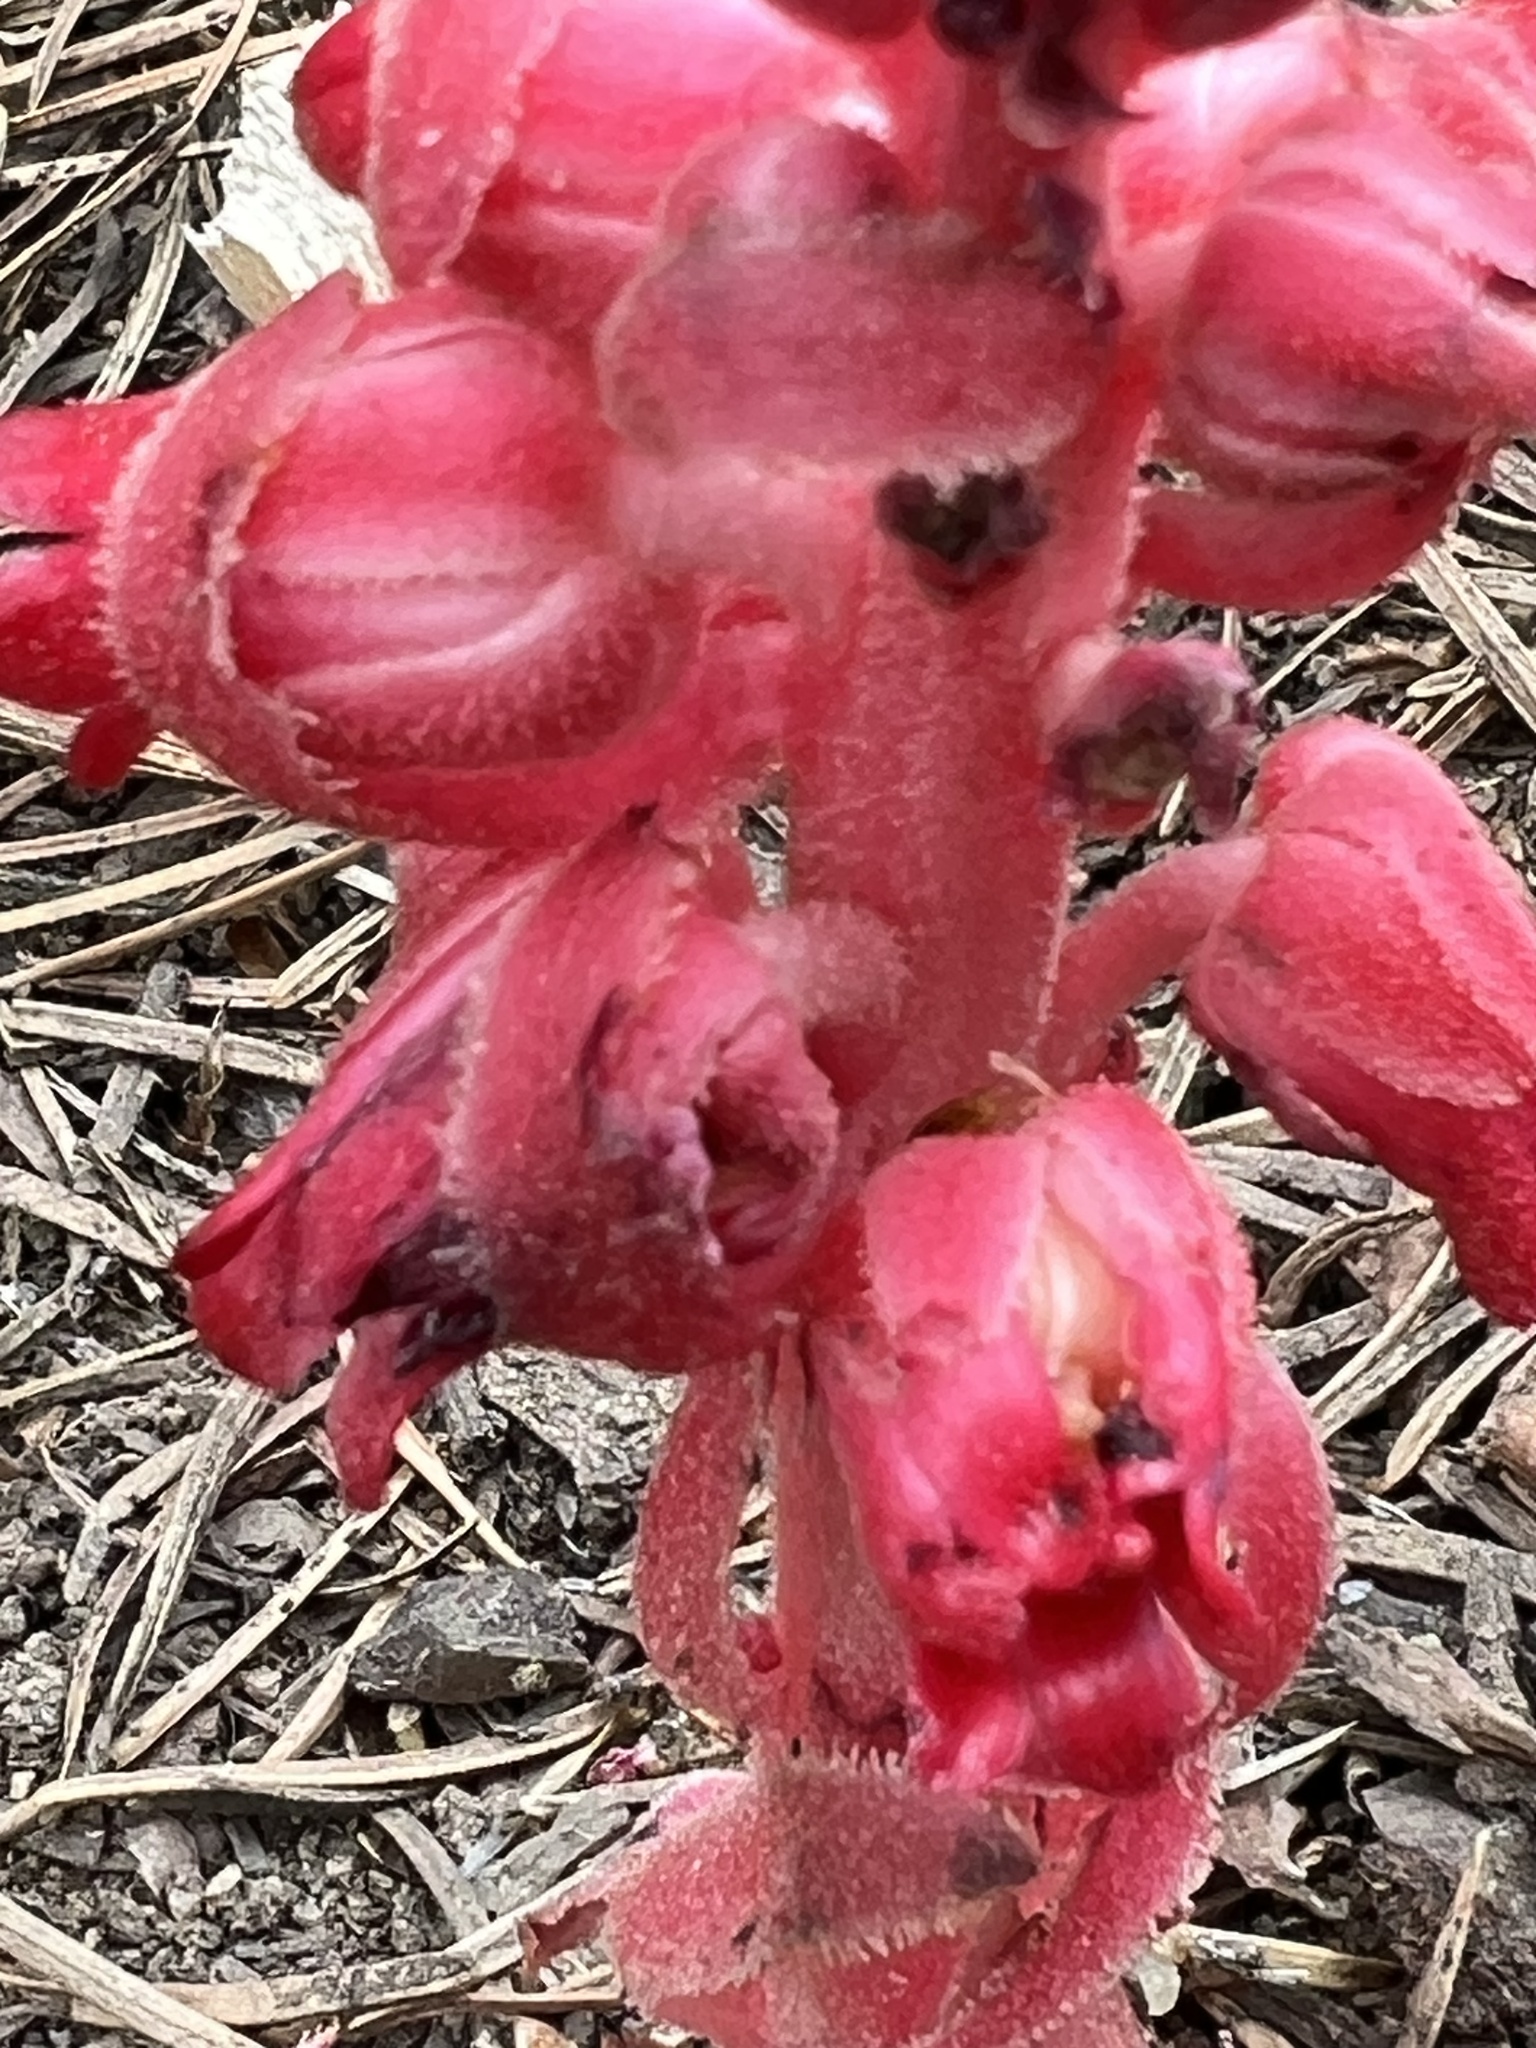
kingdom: Plantae
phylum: Tracheophyta
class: Magnoliopsida
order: Ericales
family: Ericaceae
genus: Sarcodes
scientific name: Sarcodes sanguinea
